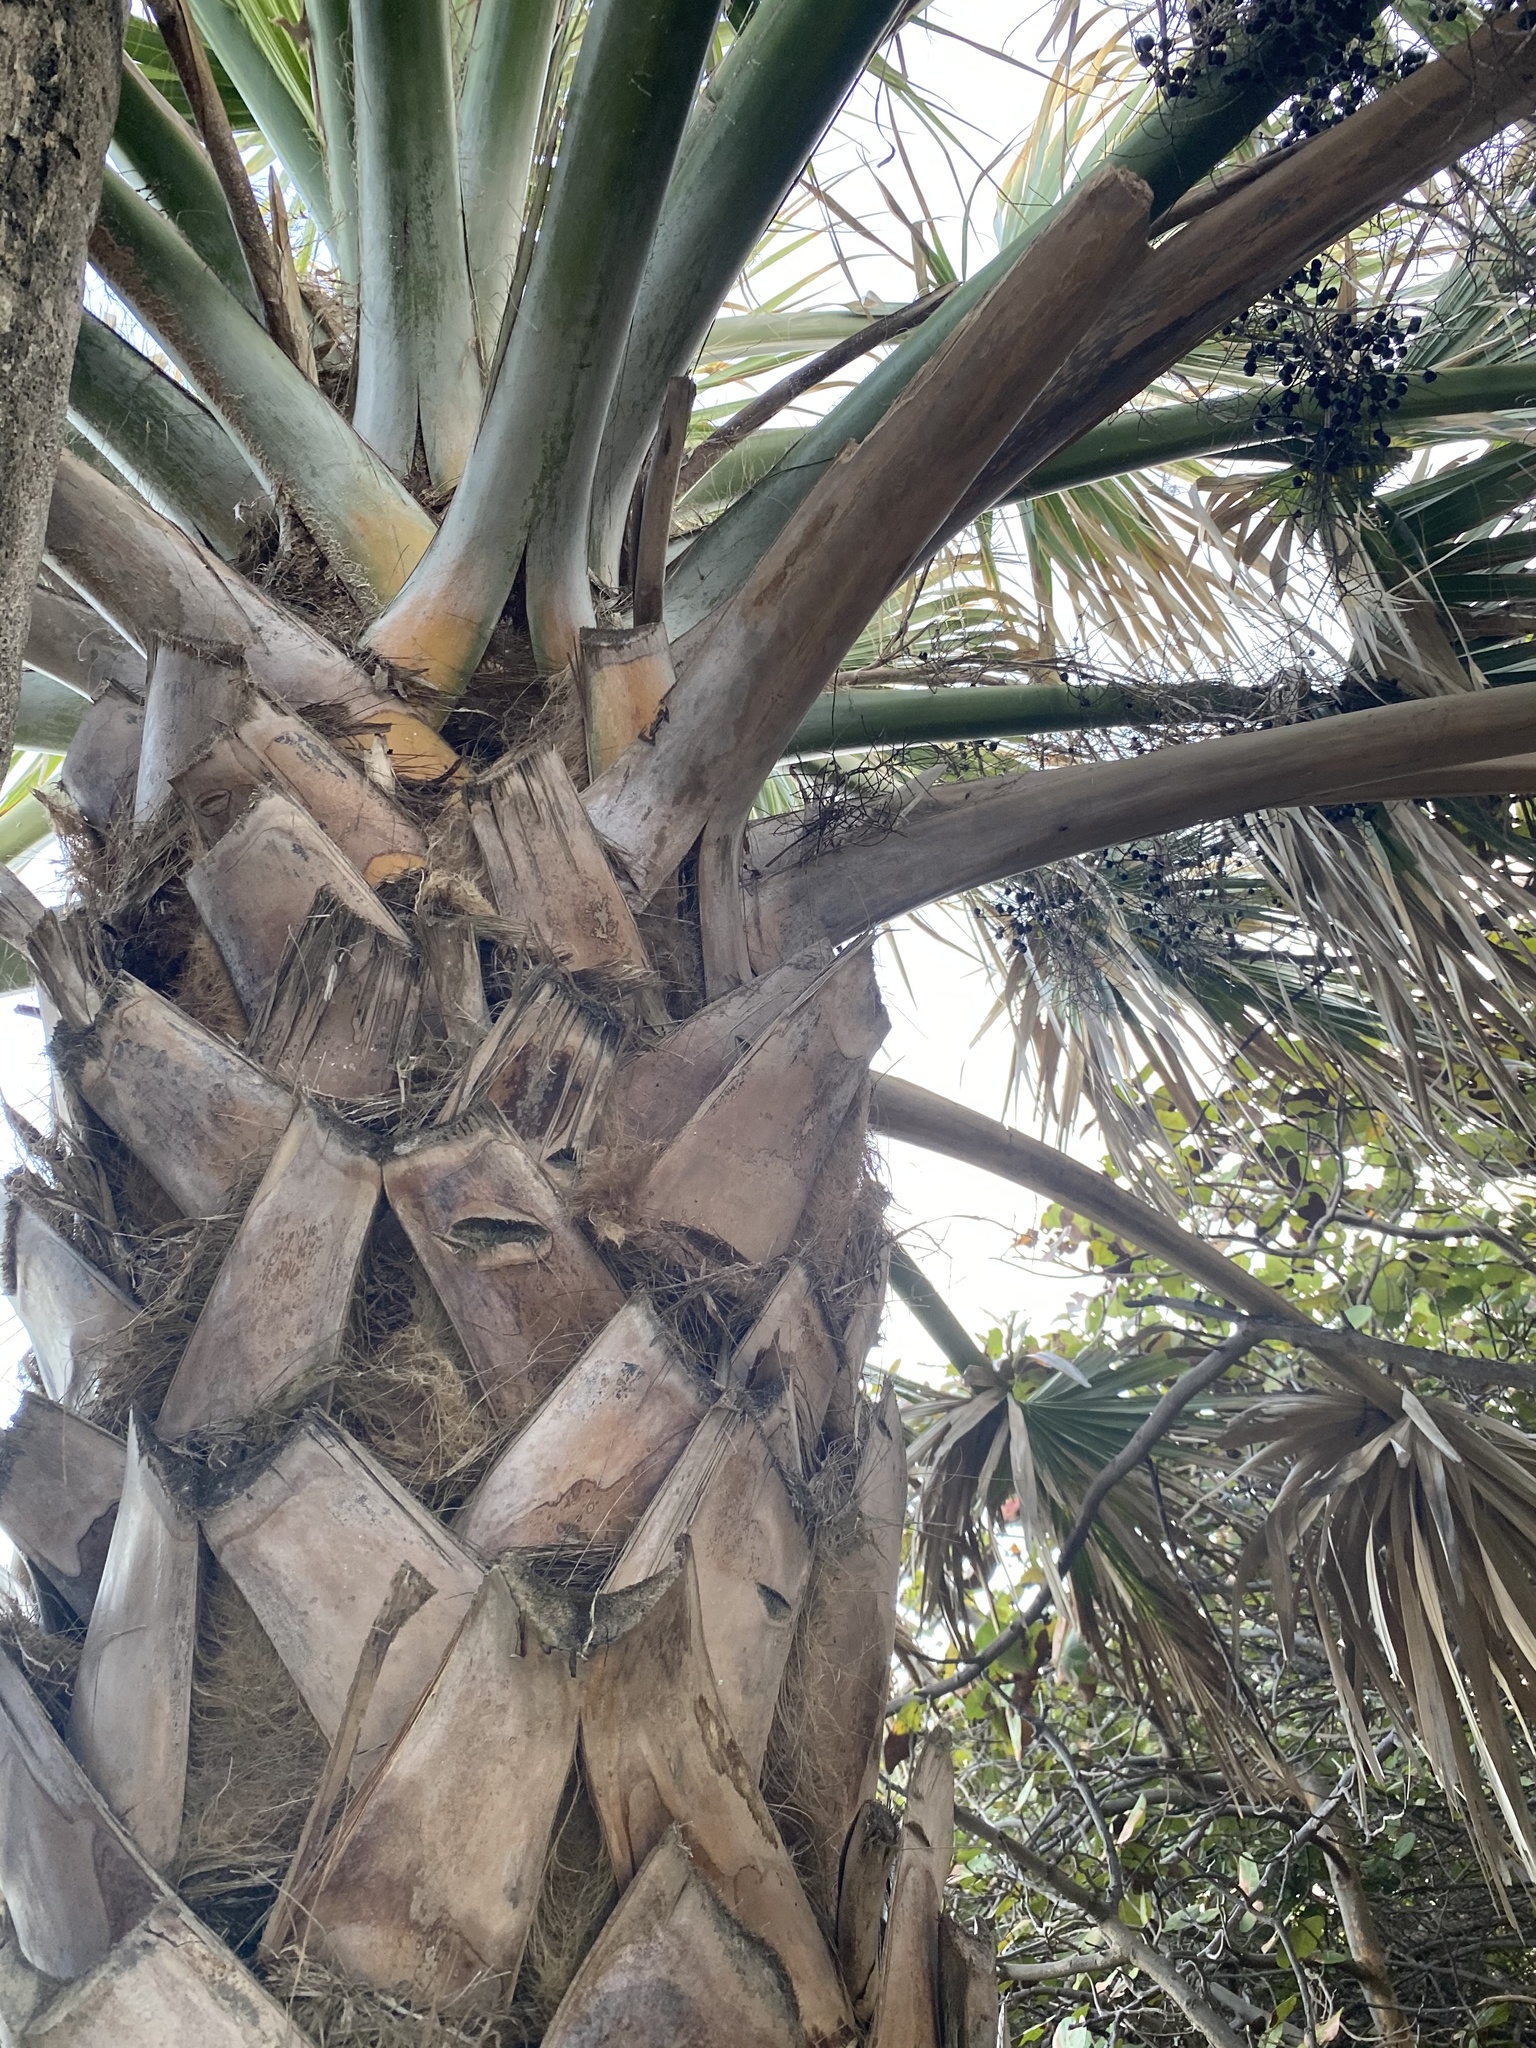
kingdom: Plantae
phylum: Tracheophyta
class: Liliopsida
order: Arecales
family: Arecaceae
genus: Sabal
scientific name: Sabal palmetto
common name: Blue palmetto
